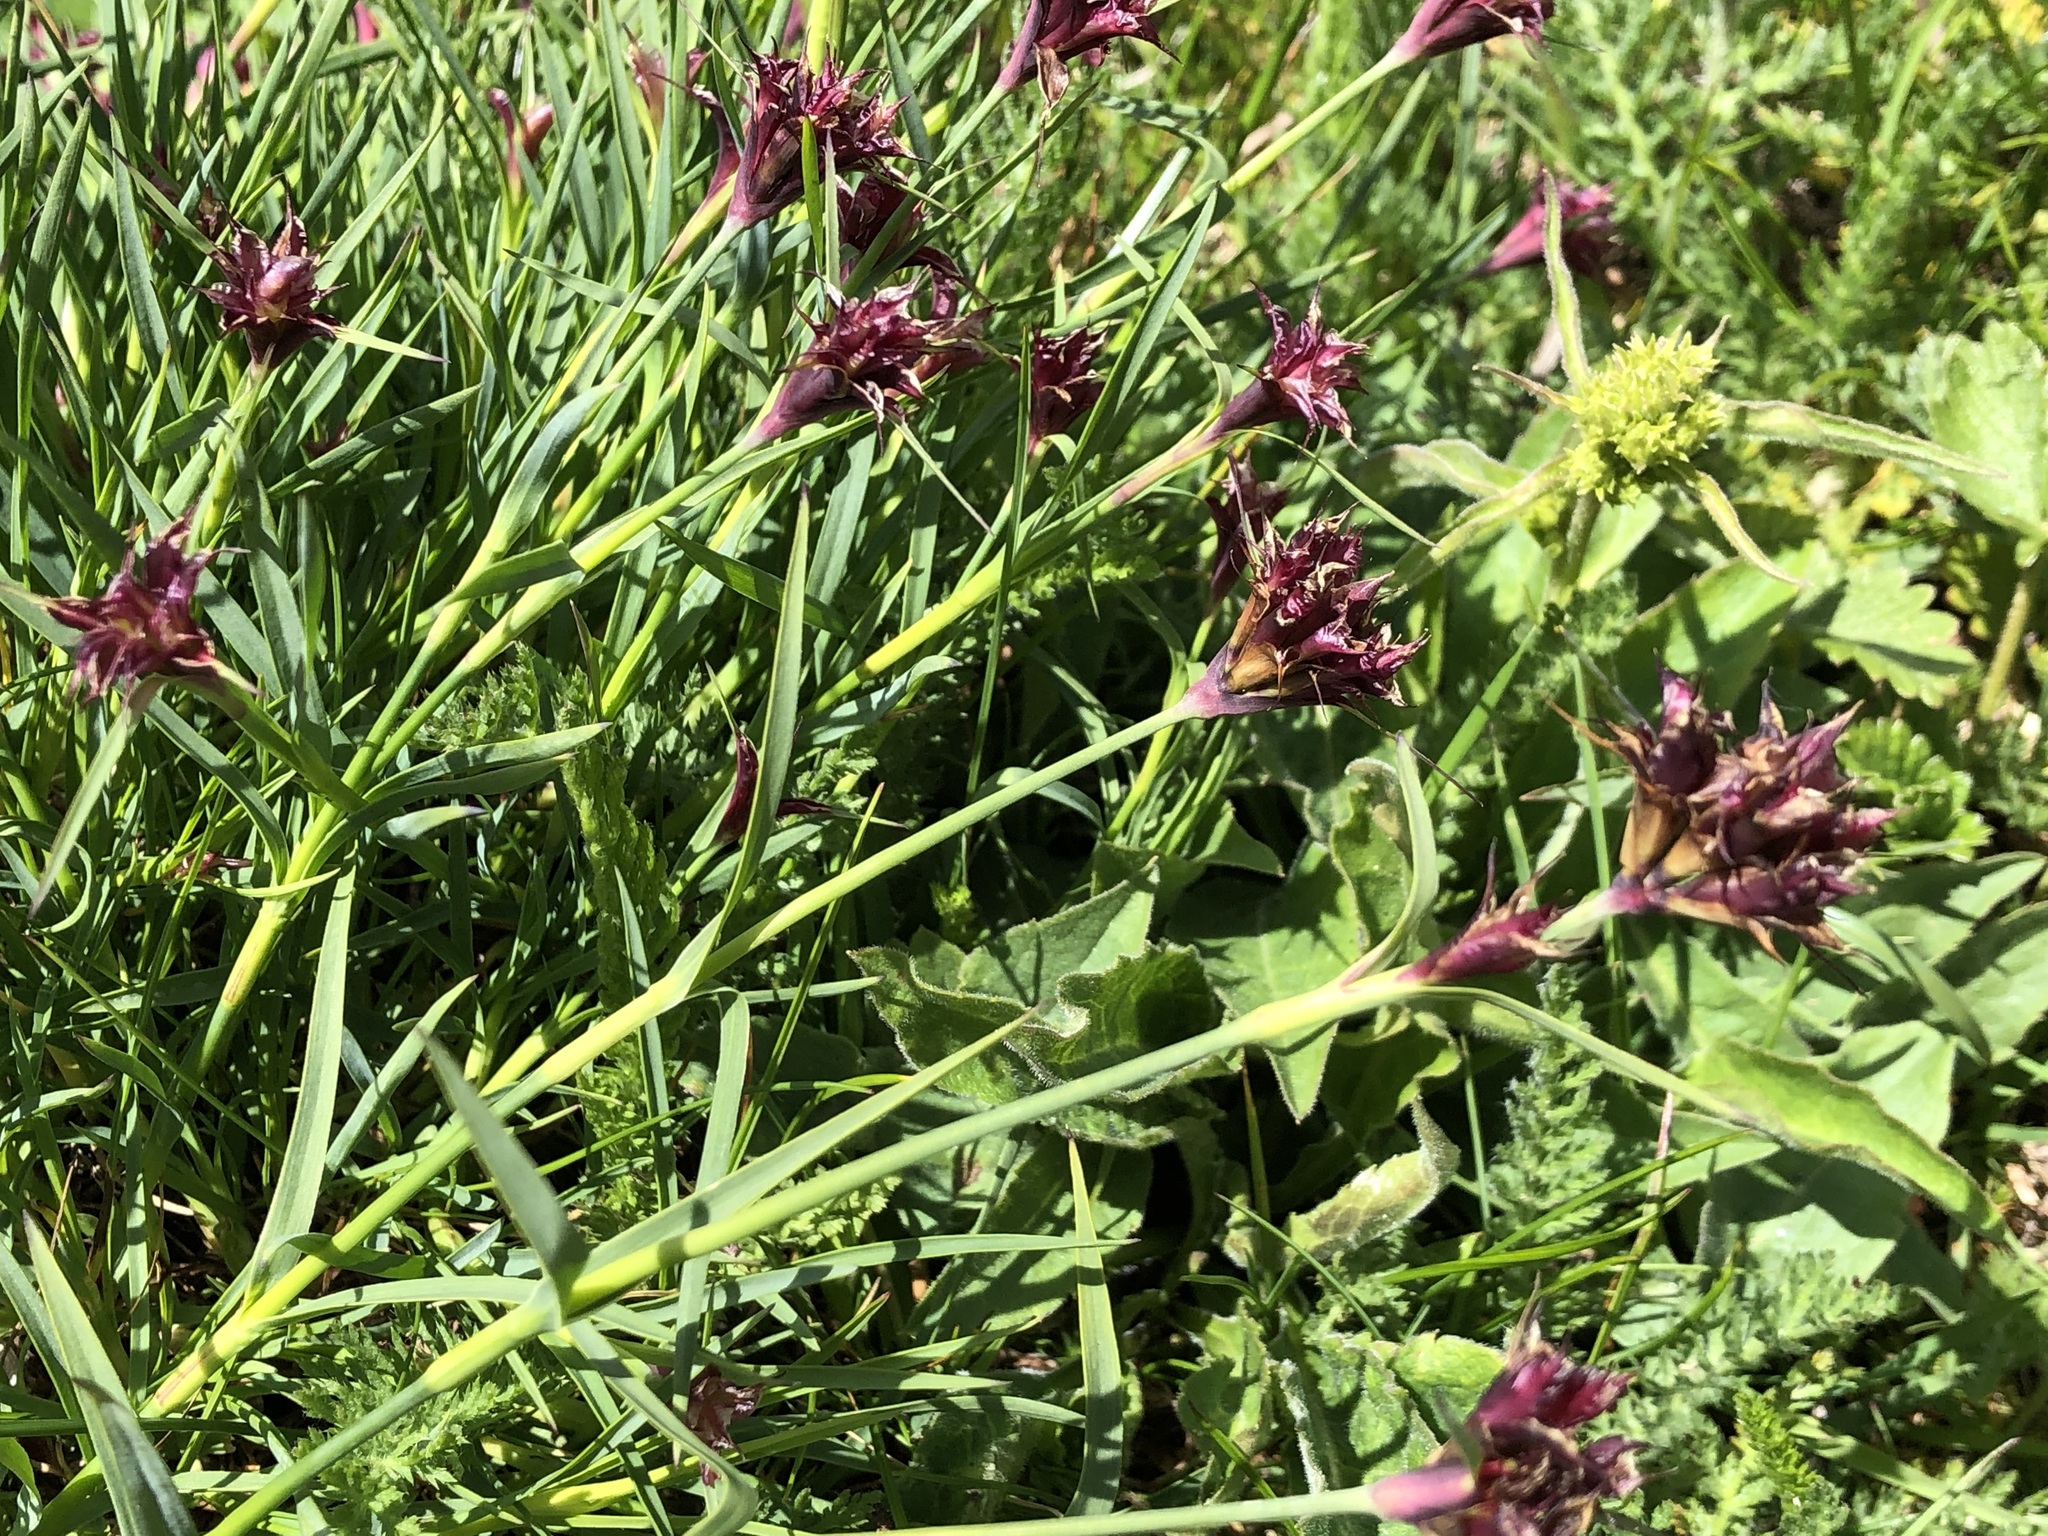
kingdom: Plantae
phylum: Tracheophyta
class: Magnoliopsida
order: Caryophyllales
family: Caryophyllaceae
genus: Dianthus
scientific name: Dianthus carthusianorum
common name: Carthusian pink
